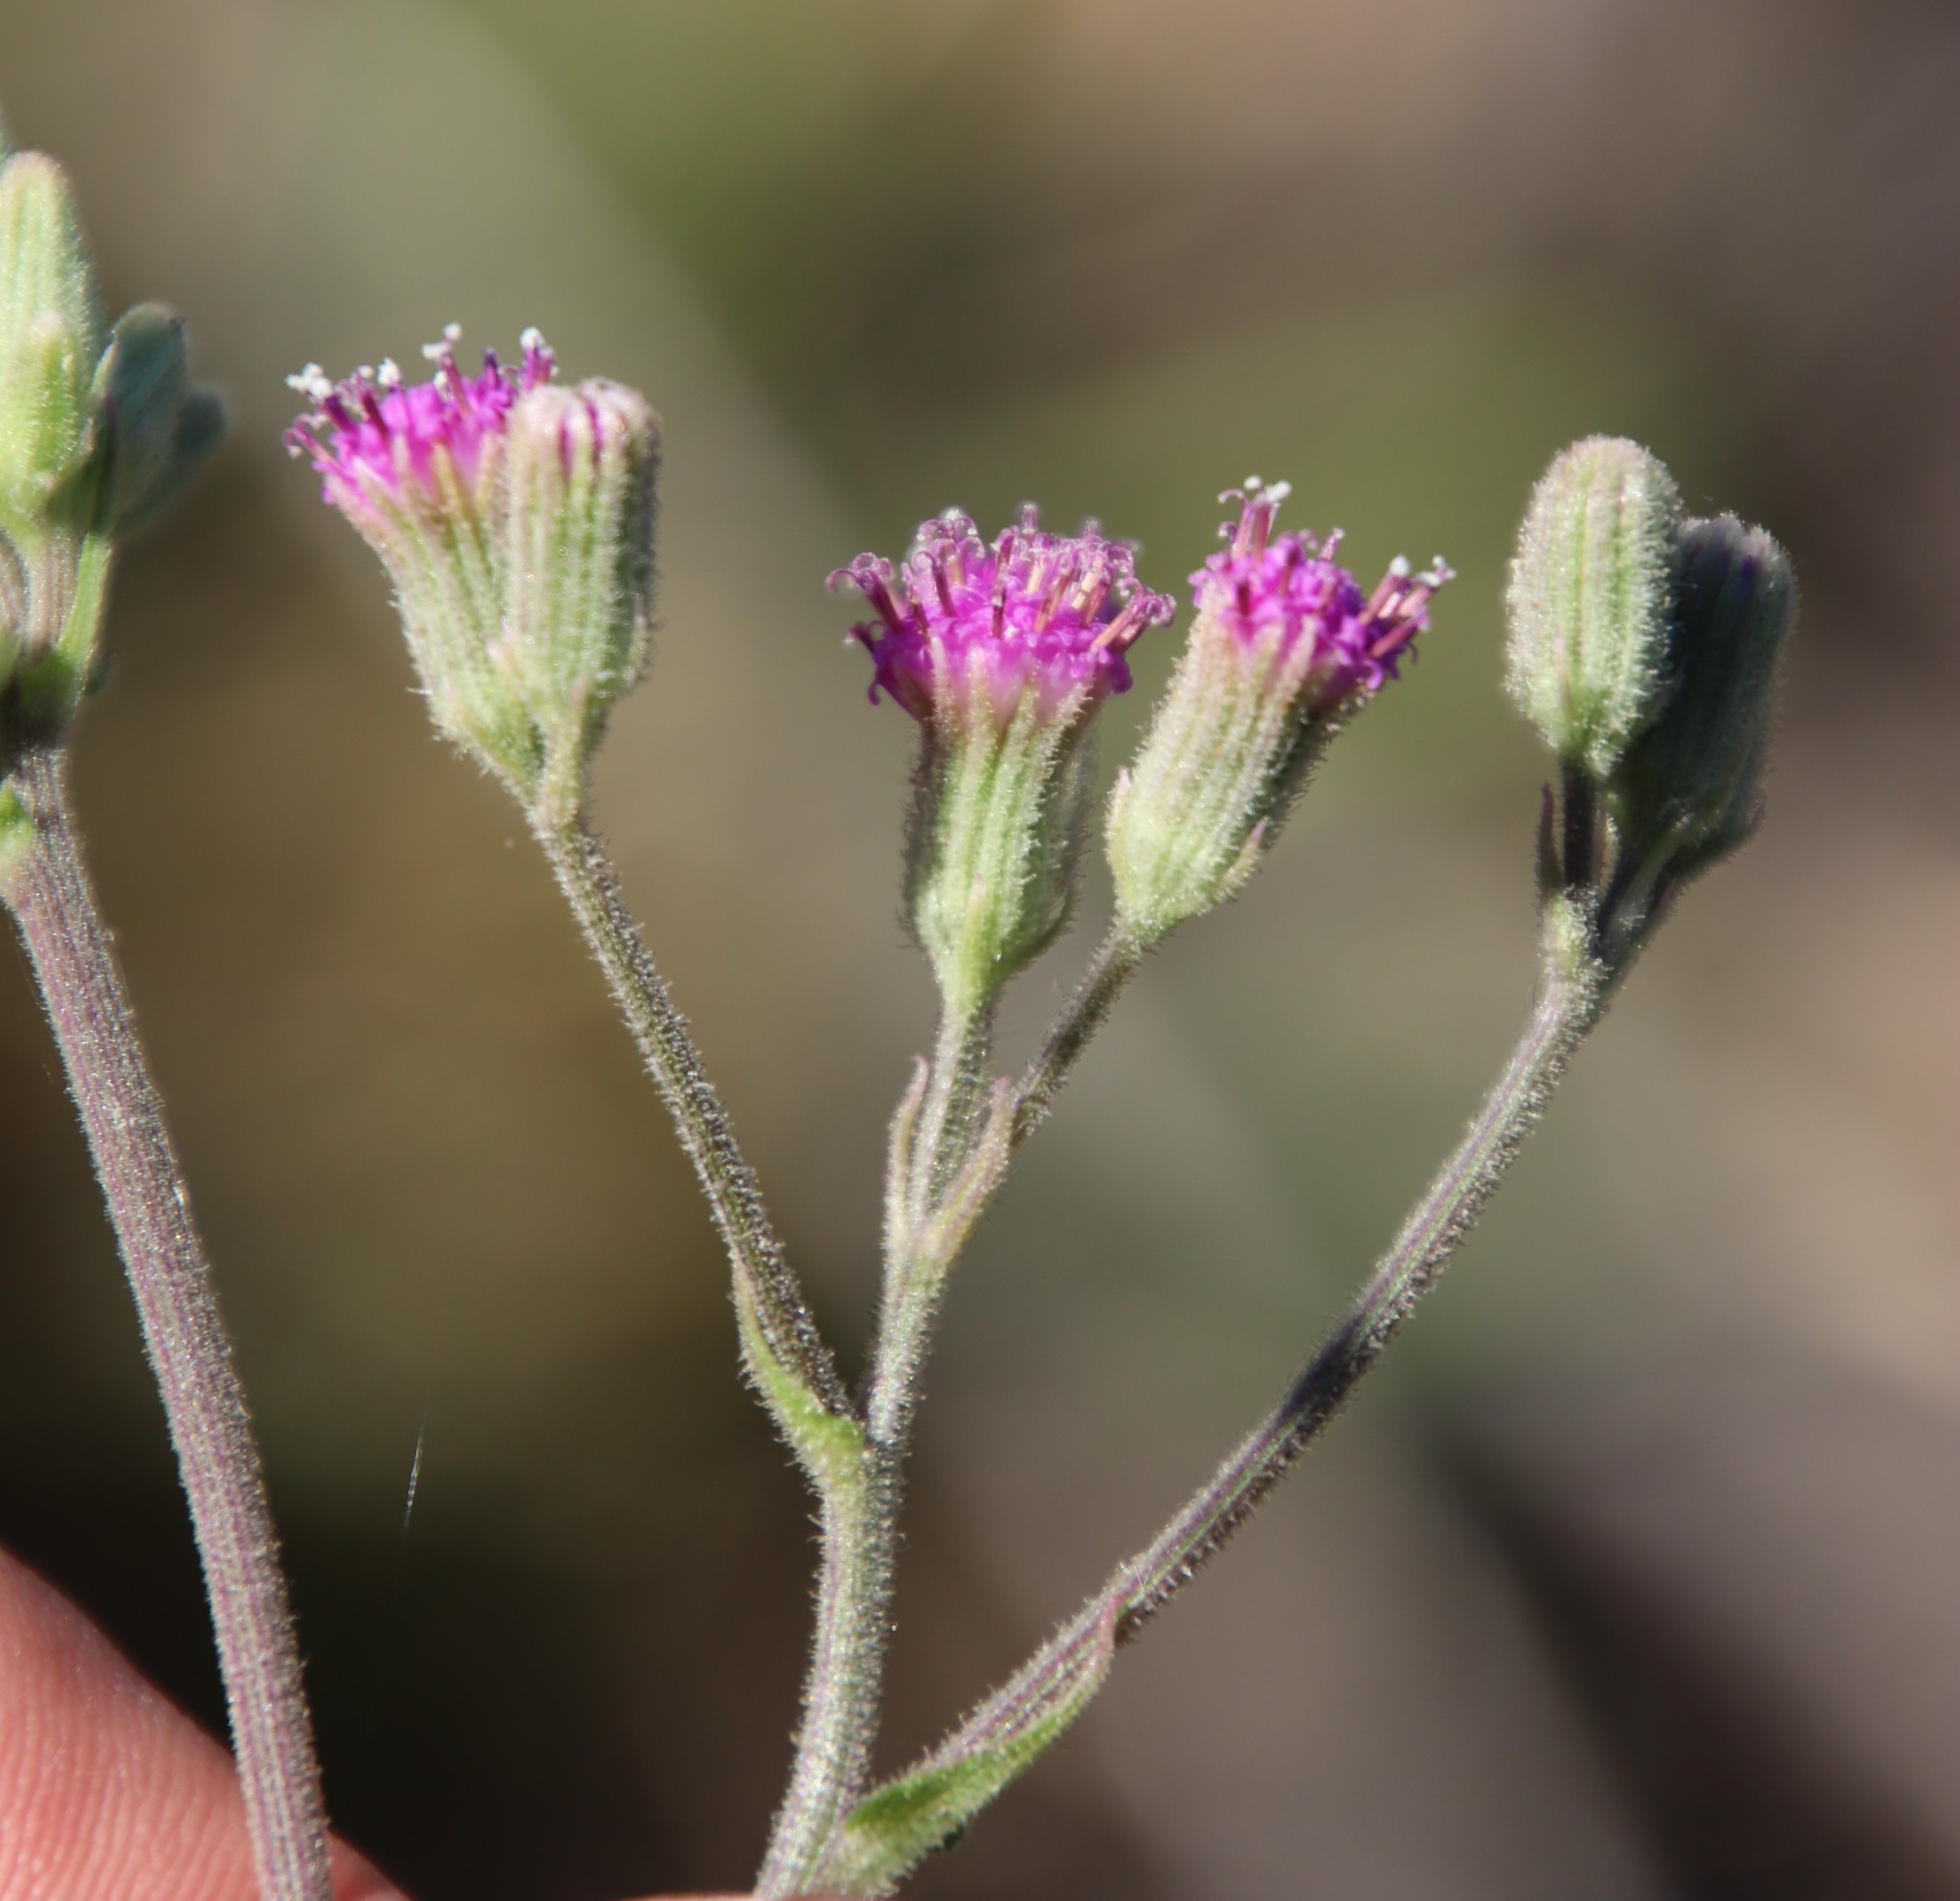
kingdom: Plantae
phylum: Tracheophyta
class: Magnoliopsida
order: Asterales
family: Asteraceae
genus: Senecio
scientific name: Senecio purpureus
